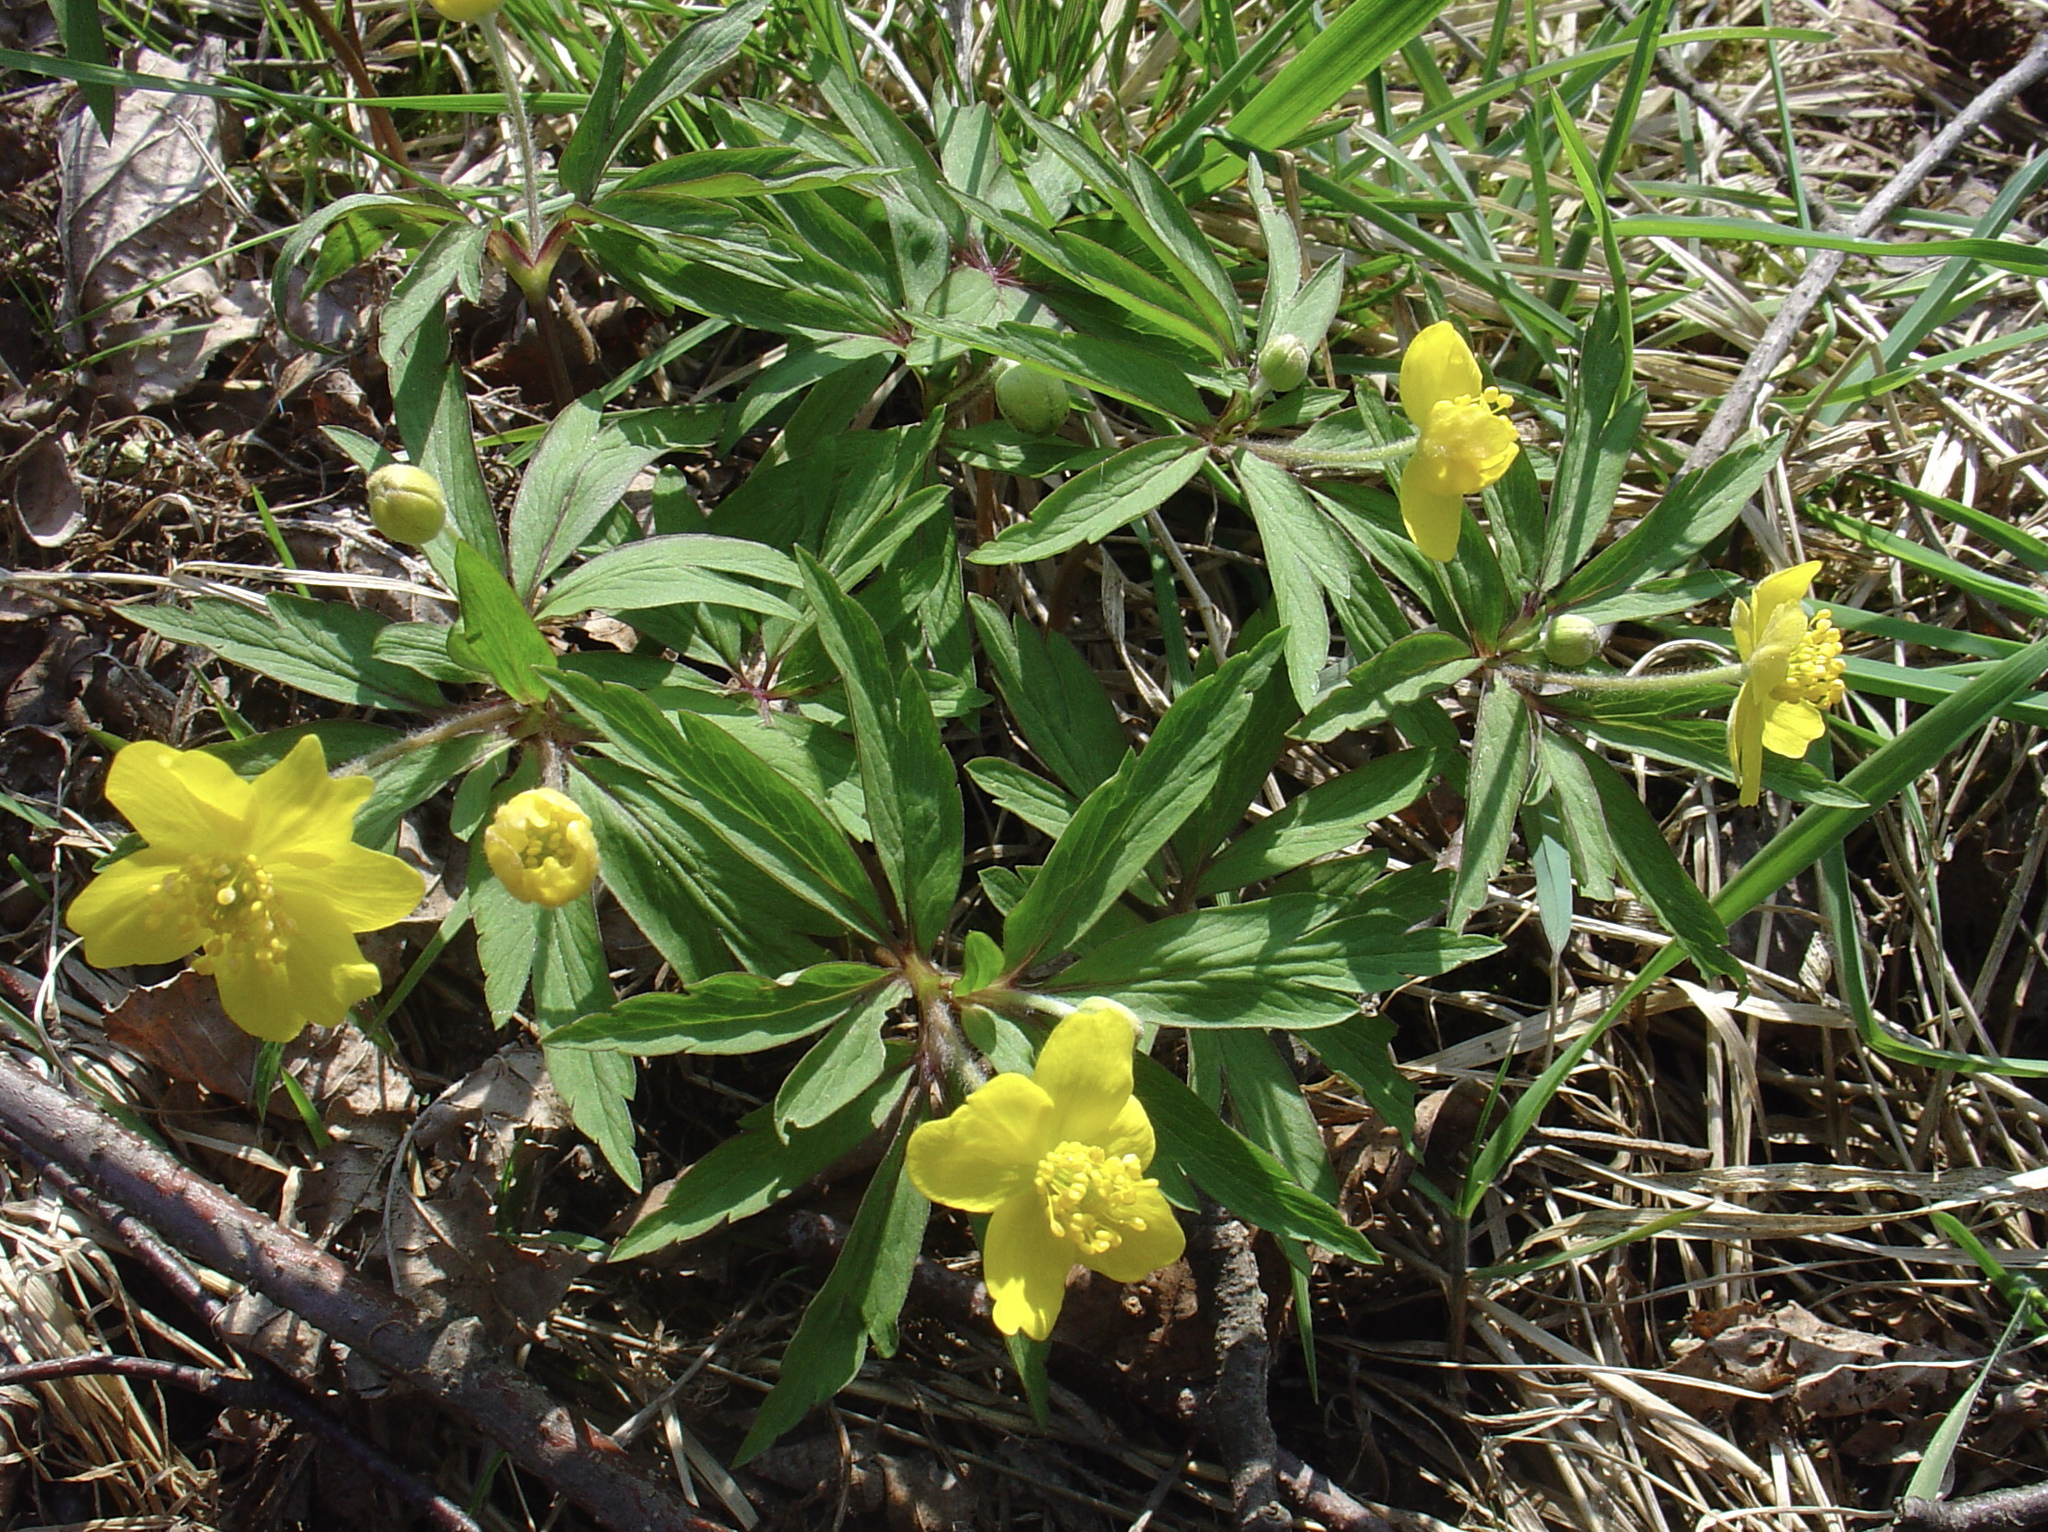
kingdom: Plantae
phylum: Tracheophyta
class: Magnoliopsida
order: Ranunculales
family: Ranunculaceae
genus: Anemone
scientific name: Anemone ranunculoides
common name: Yellow anemone
